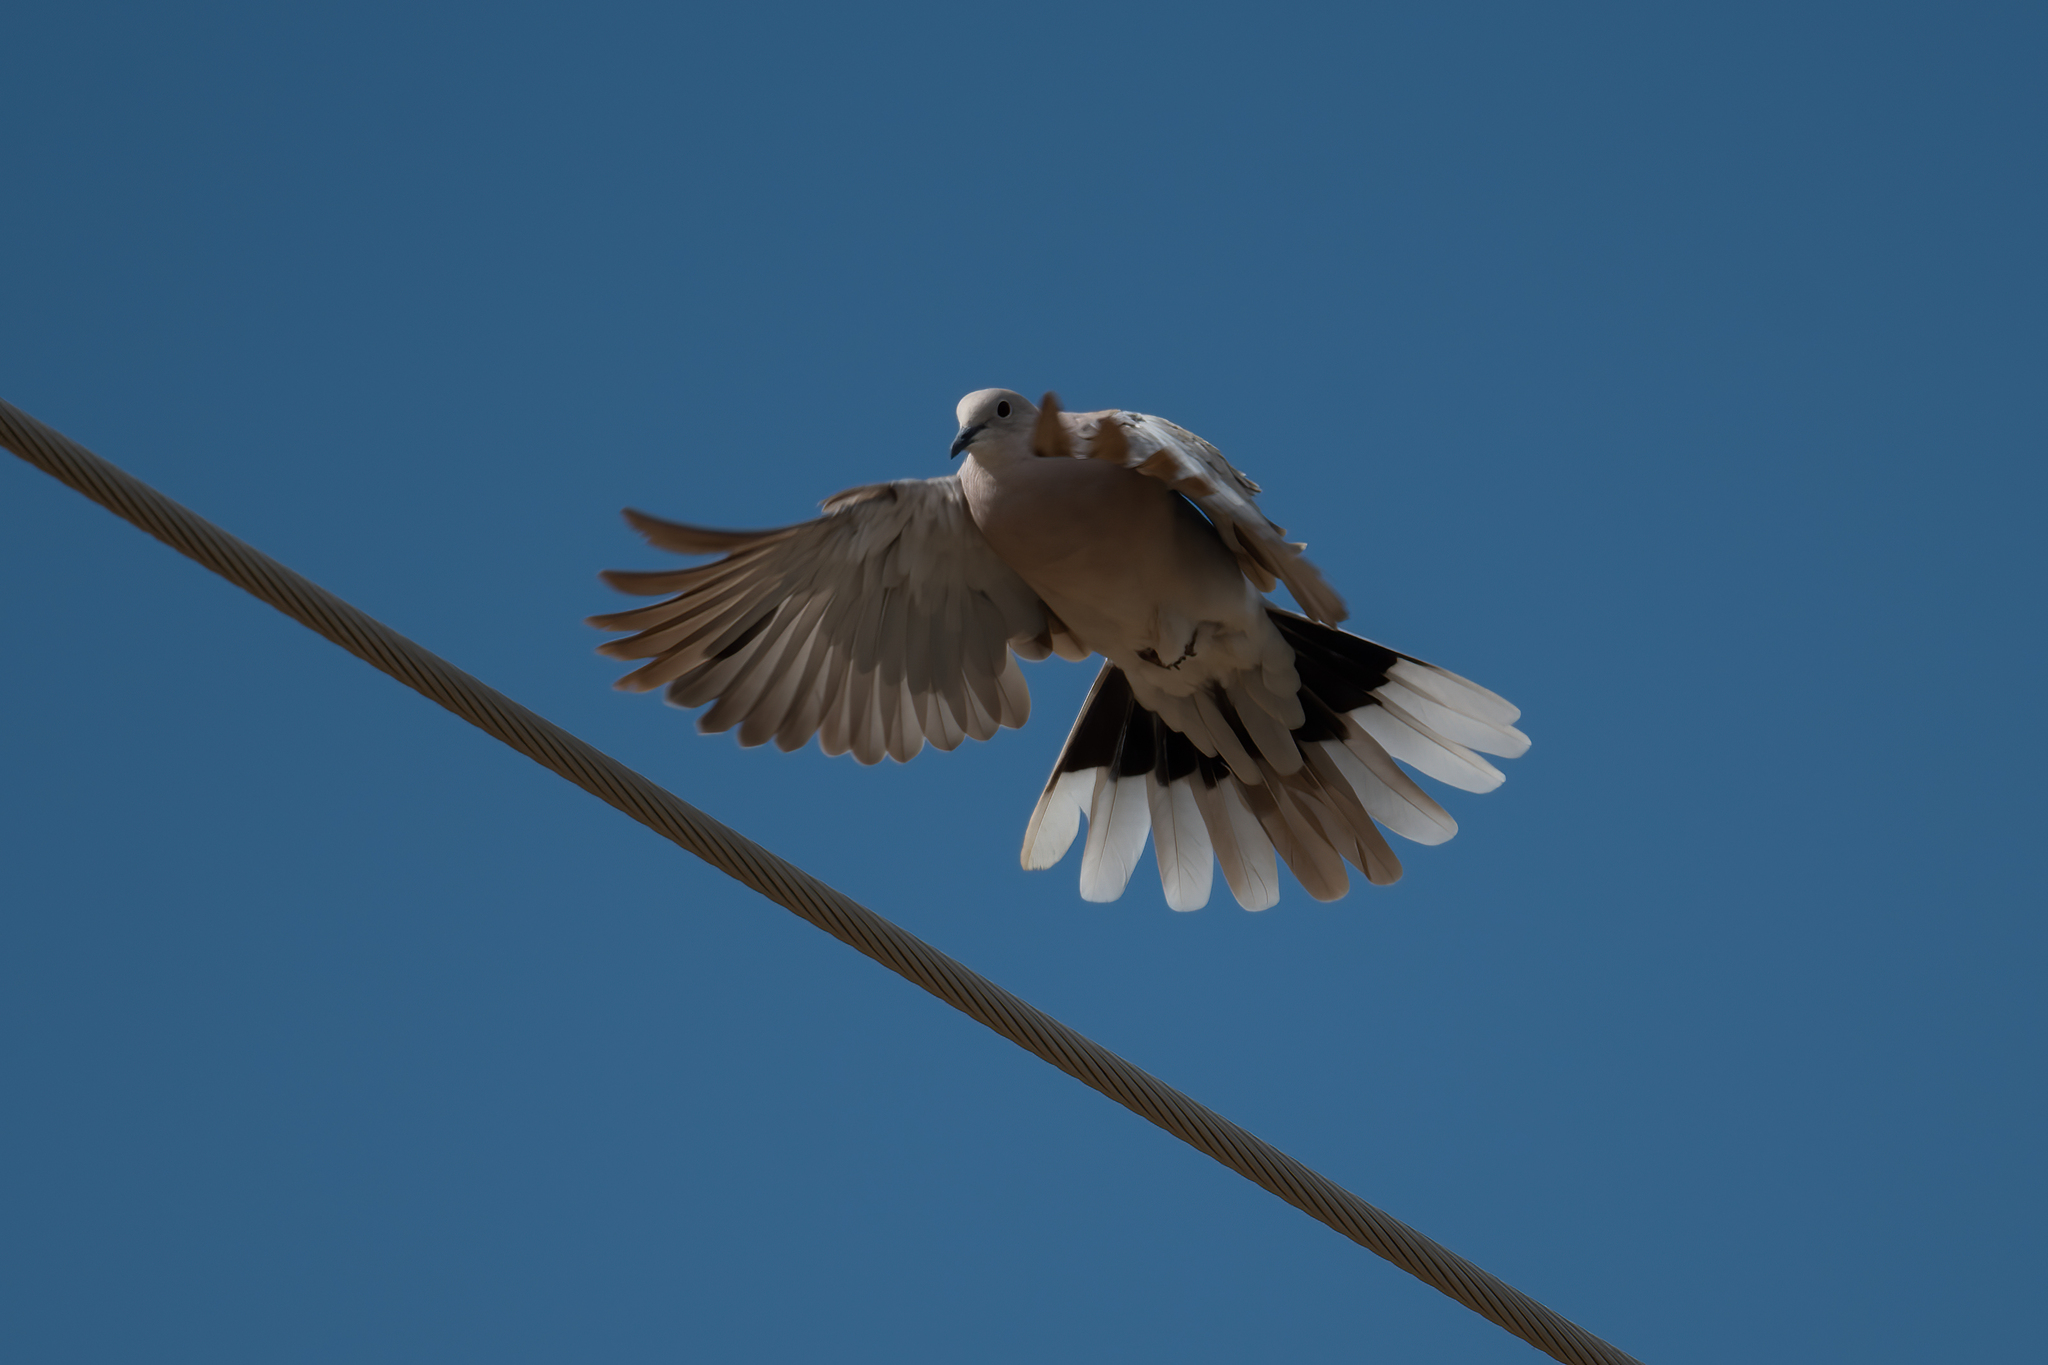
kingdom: Animalia
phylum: Chordata
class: Aves
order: Columbiformes
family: Columbidae
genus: Streptopelia
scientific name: Streptopelia decaocto
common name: Eurasian collared dove
